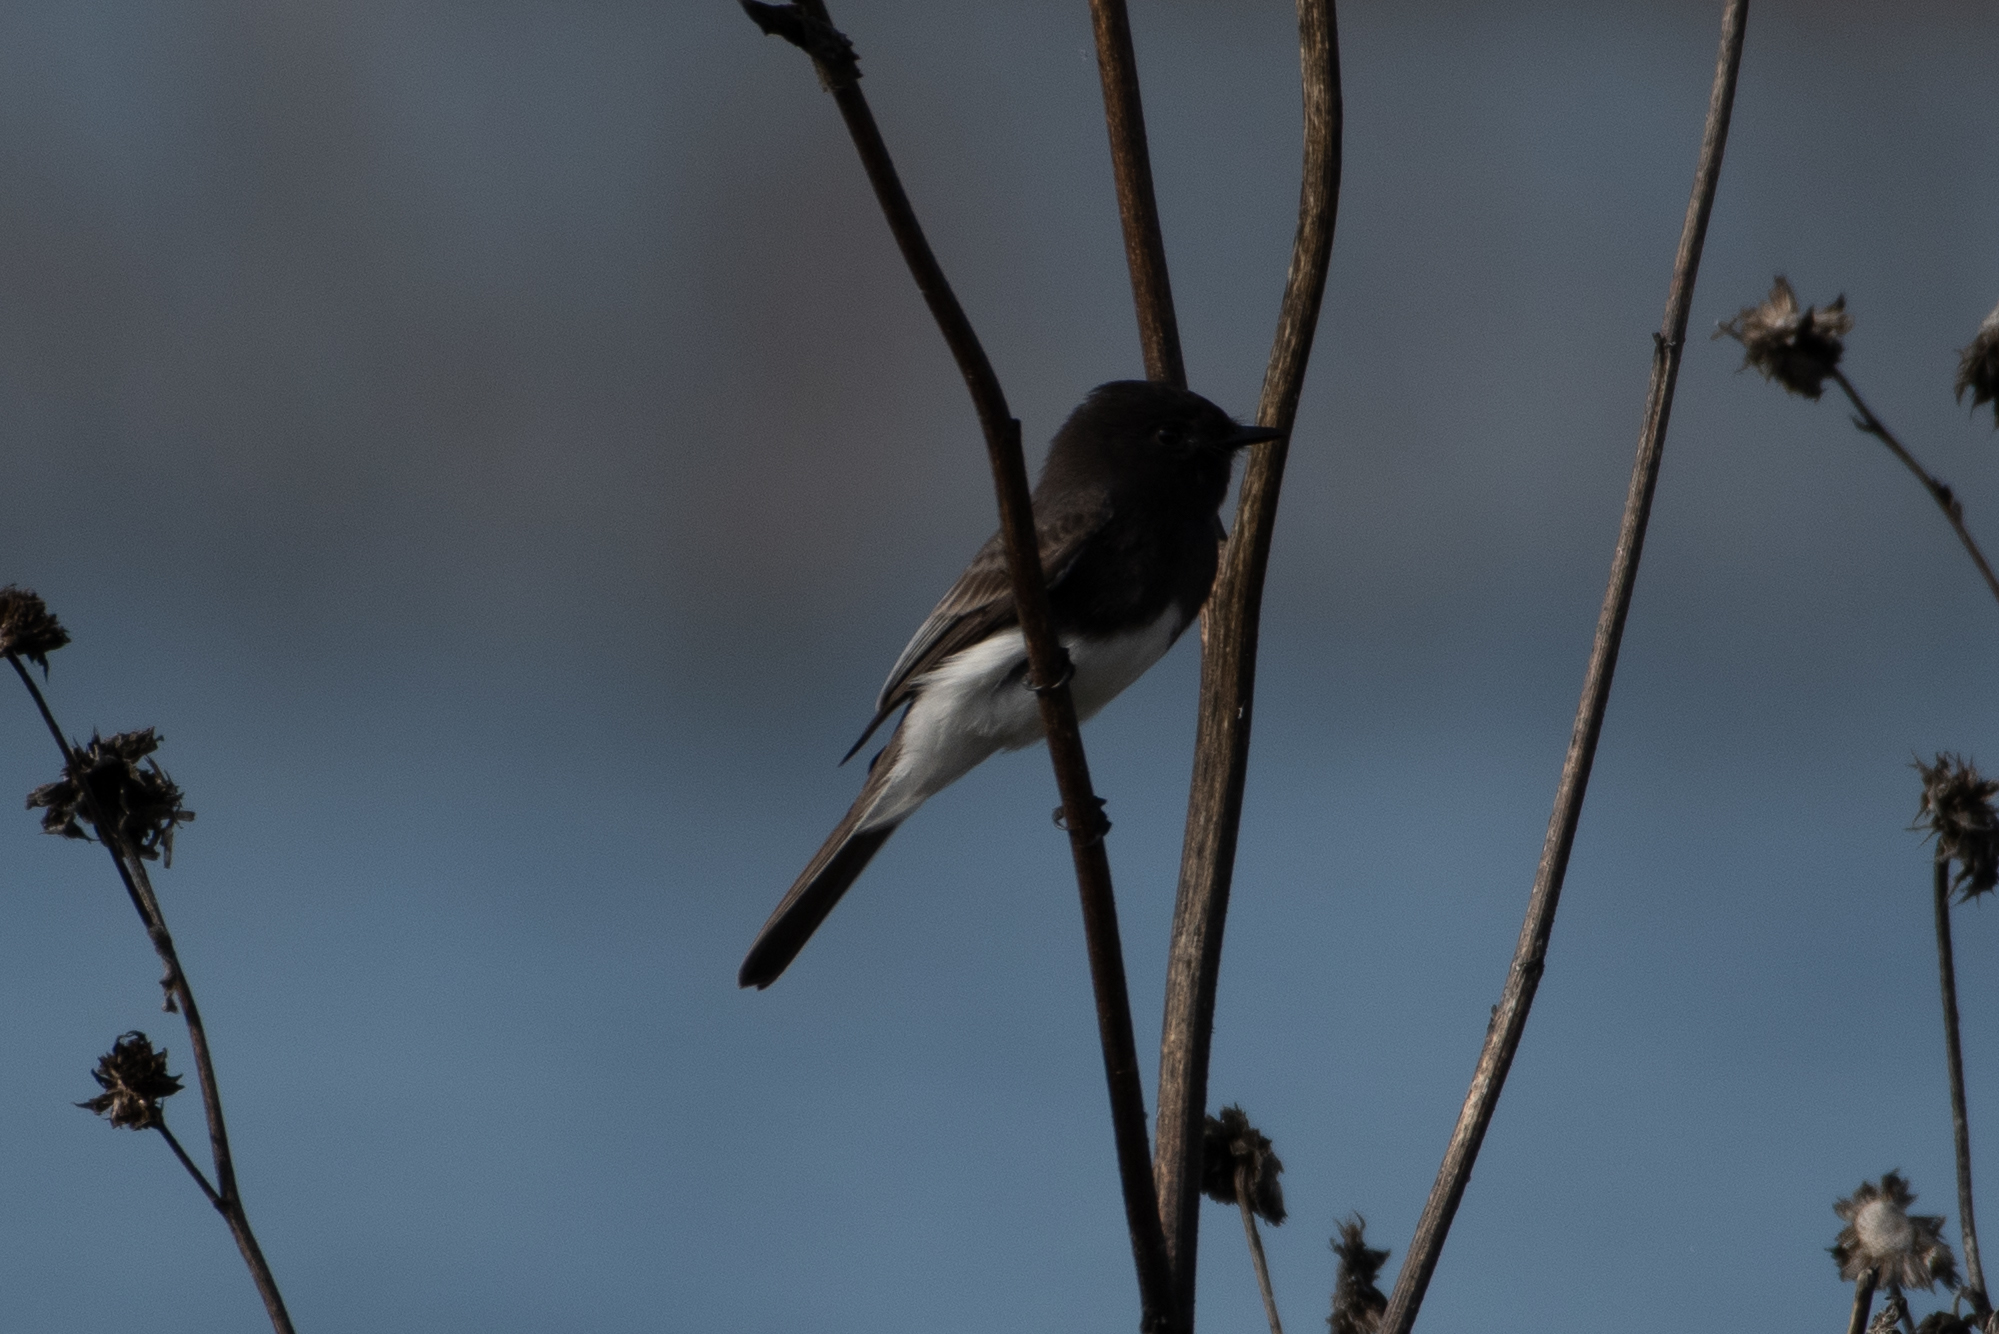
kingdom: Animalia
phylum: Chordata
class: Aves
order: Passeriformes
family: Tyrannidae
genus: Sayornis
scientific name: Sayornis nigricans
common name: Black phoebe
